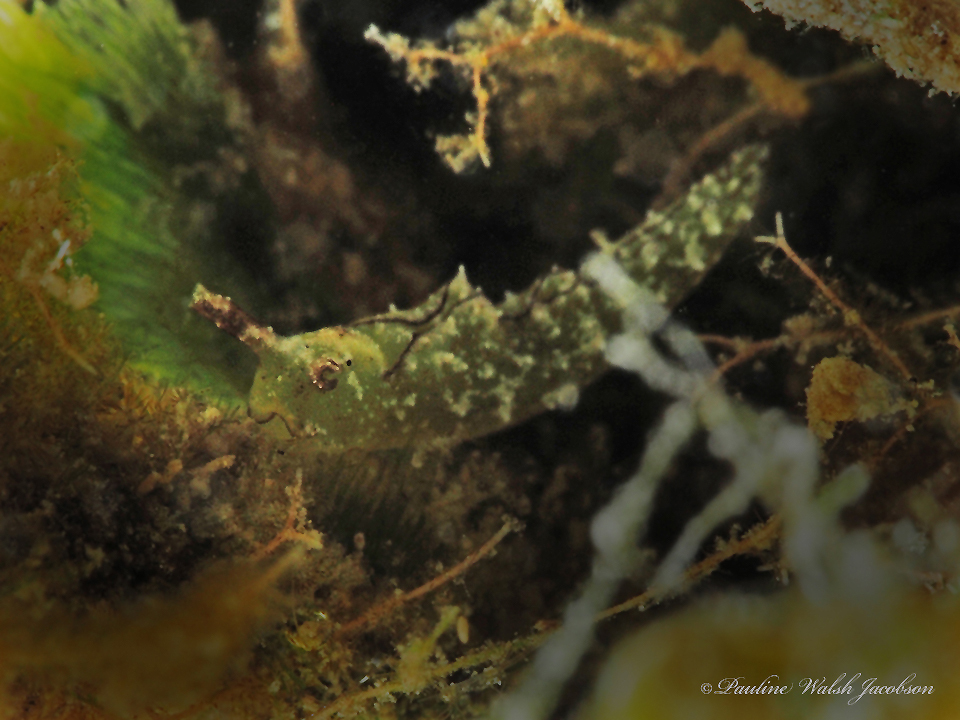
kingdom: Animalia
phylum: Mollusca
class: Gastropoda
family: Plakobranchidae
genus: Elysia
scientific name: Elysia subornata
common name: Ruffled elysia
